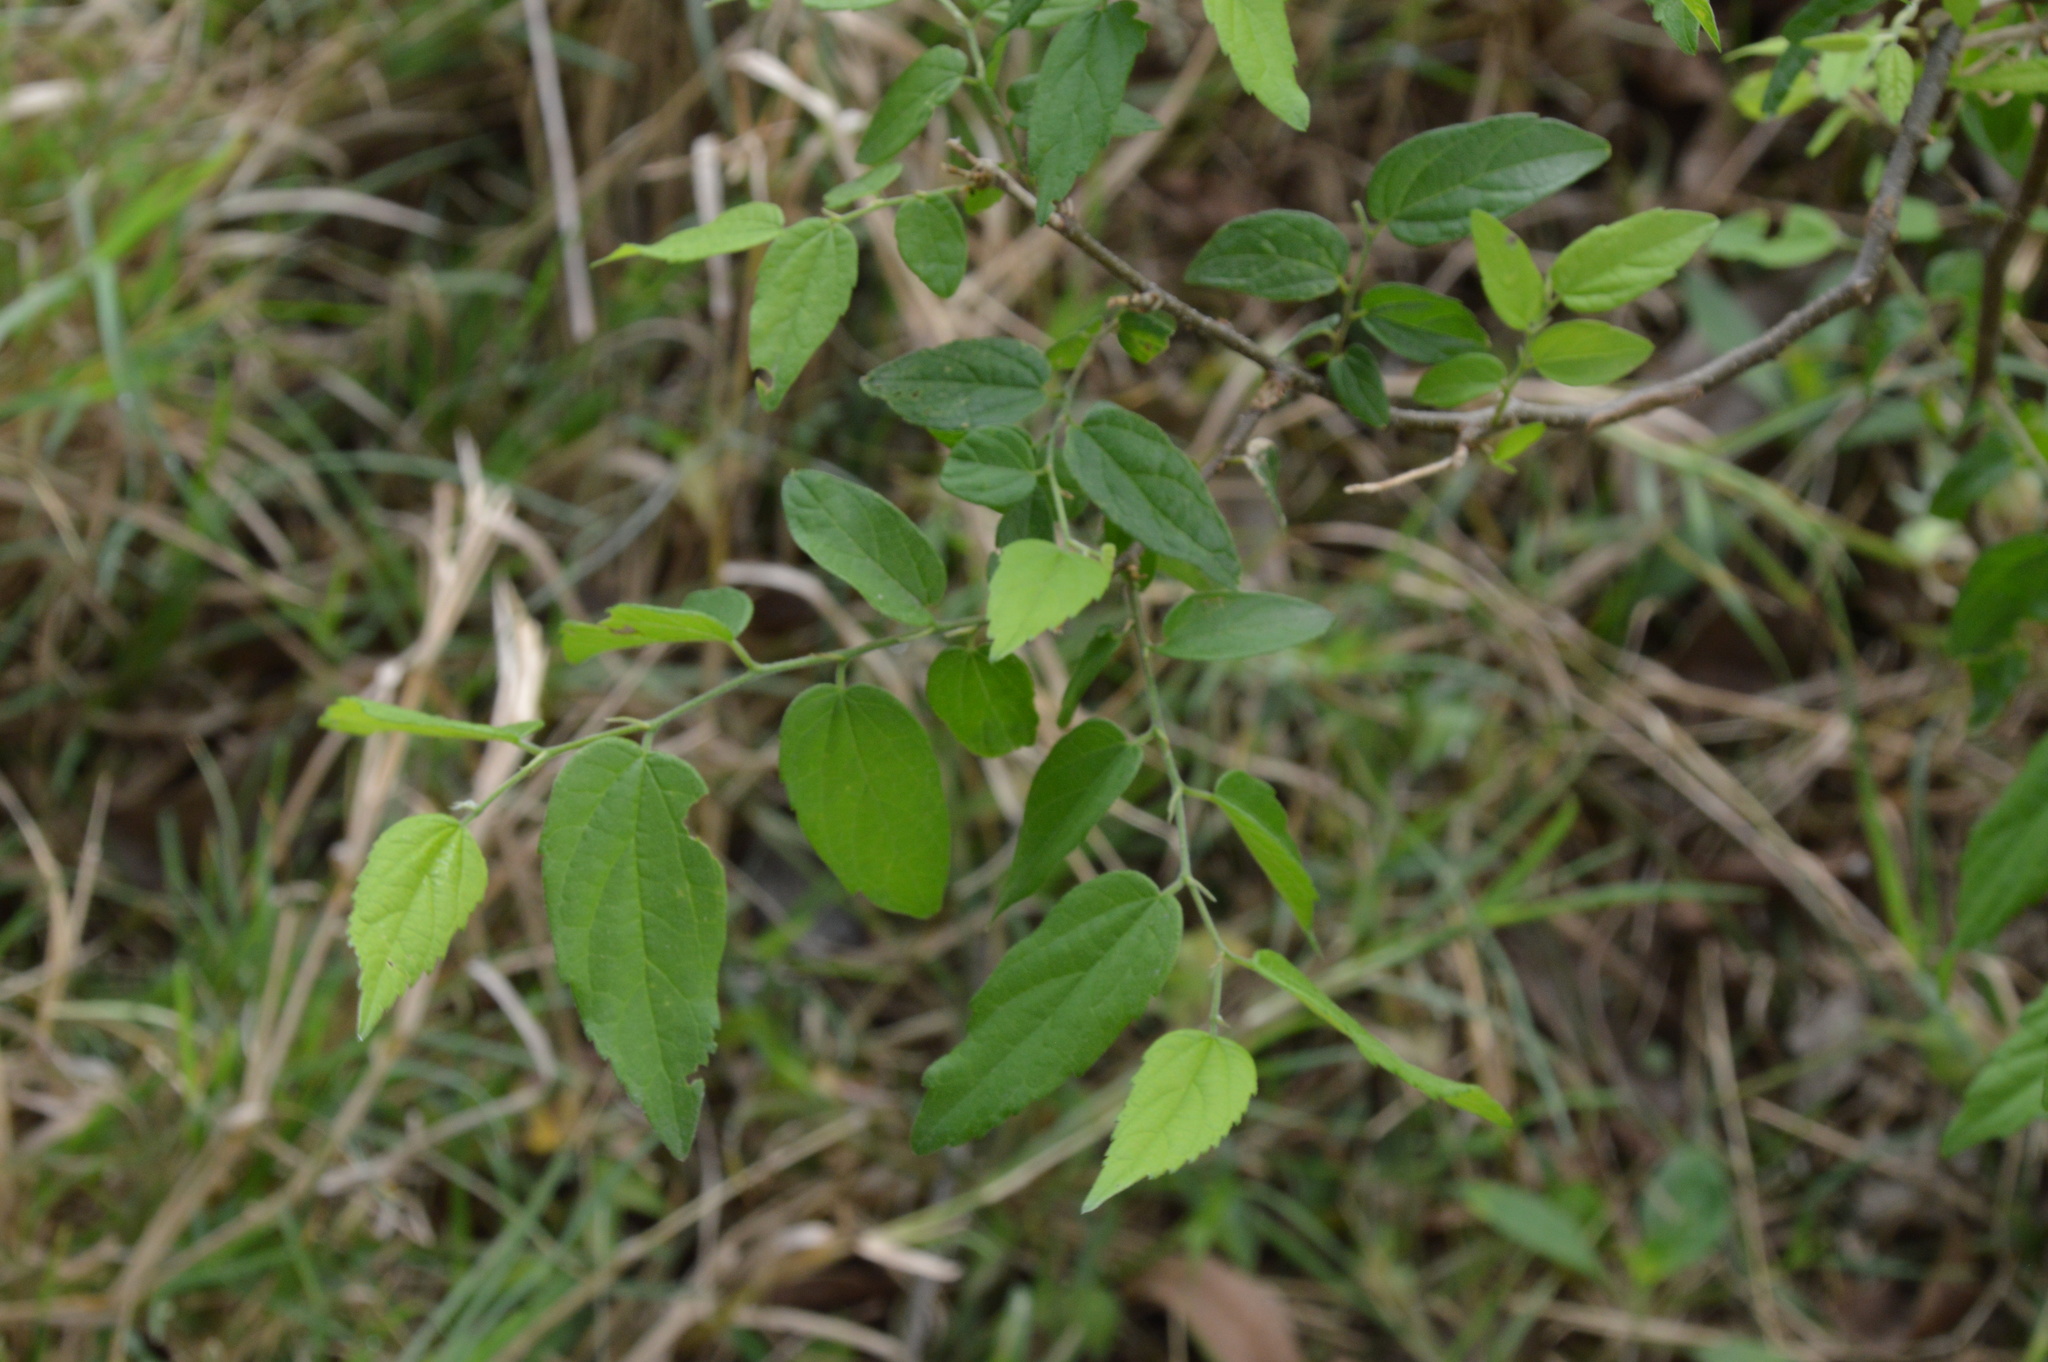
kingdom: Plantae
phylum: Tracheophyta
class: Magnoliopsida
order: Rosales
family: Cannabaceae
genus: Celtis
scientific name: Celtis laevigata
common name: Sugarberry
